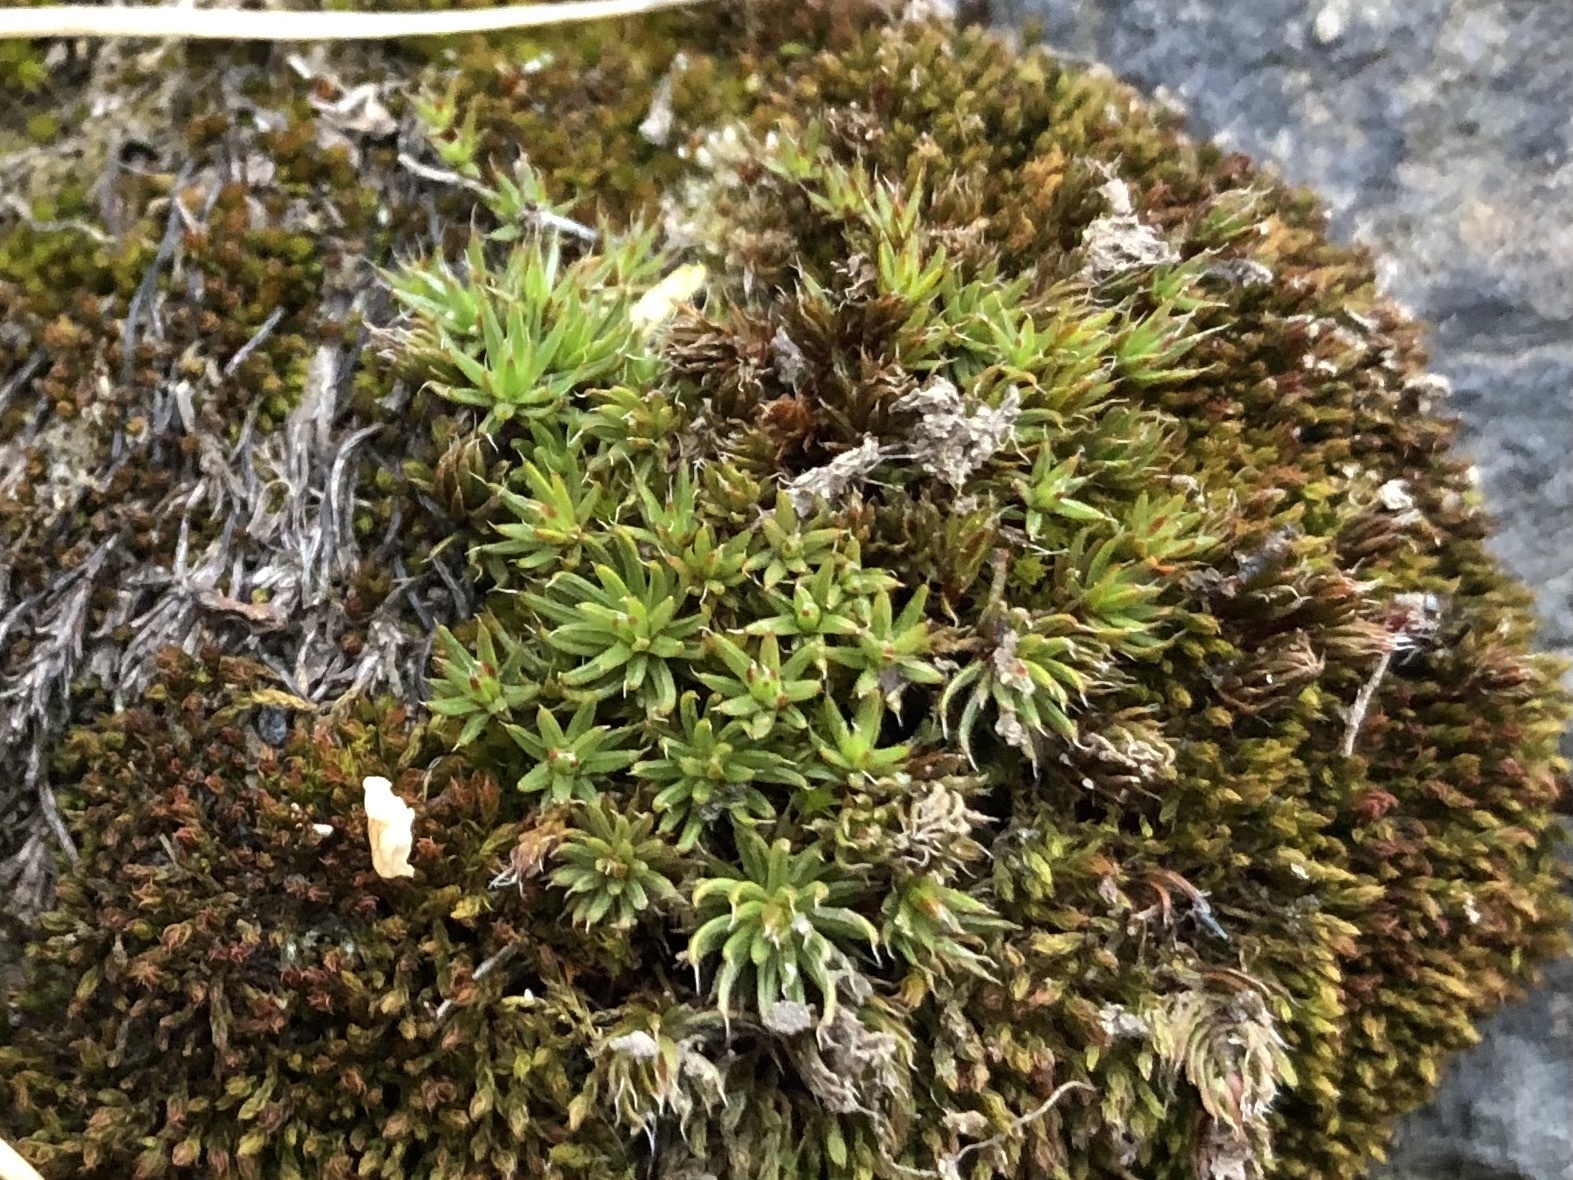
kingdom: Plantae
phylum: Bryophyta
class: Polytrichopsida
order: Polytrichales
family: Polytrichaceae
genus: Polytrichum
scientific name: Polytrichum piliferum
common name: Bristly haircap
